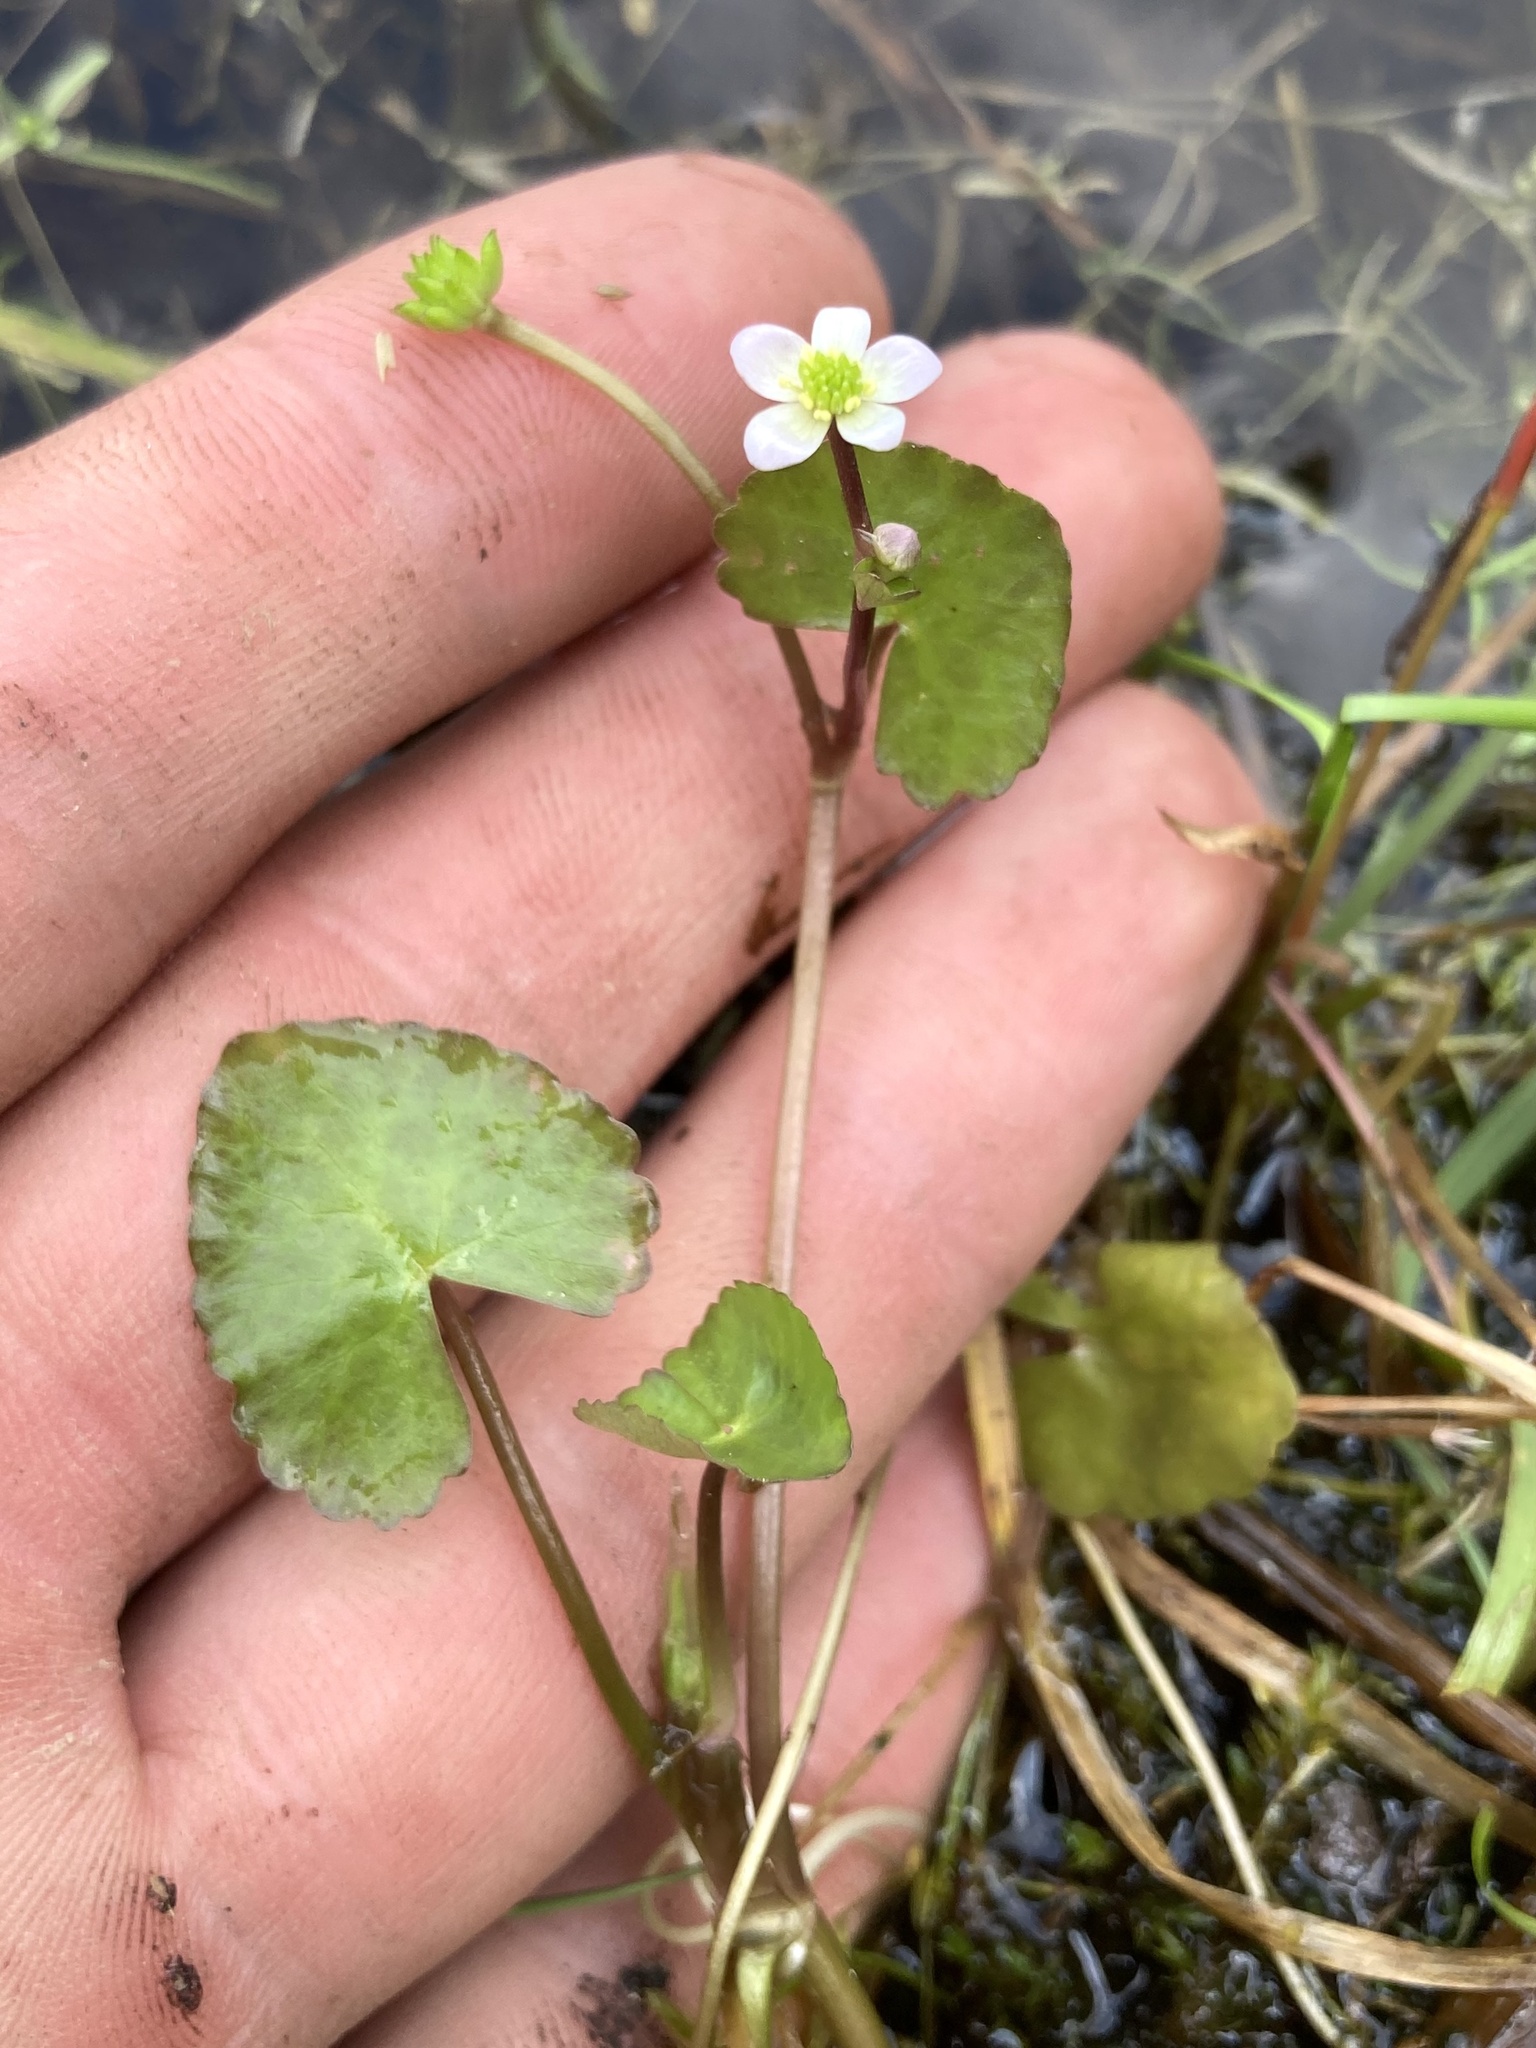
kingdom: Plantae
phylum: Tracheophyta
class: Magnoliopsida
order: Ranunculales
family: Ranunculaceae
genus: Caltha
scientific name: Caltha natans
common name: Floating marsh marigold
